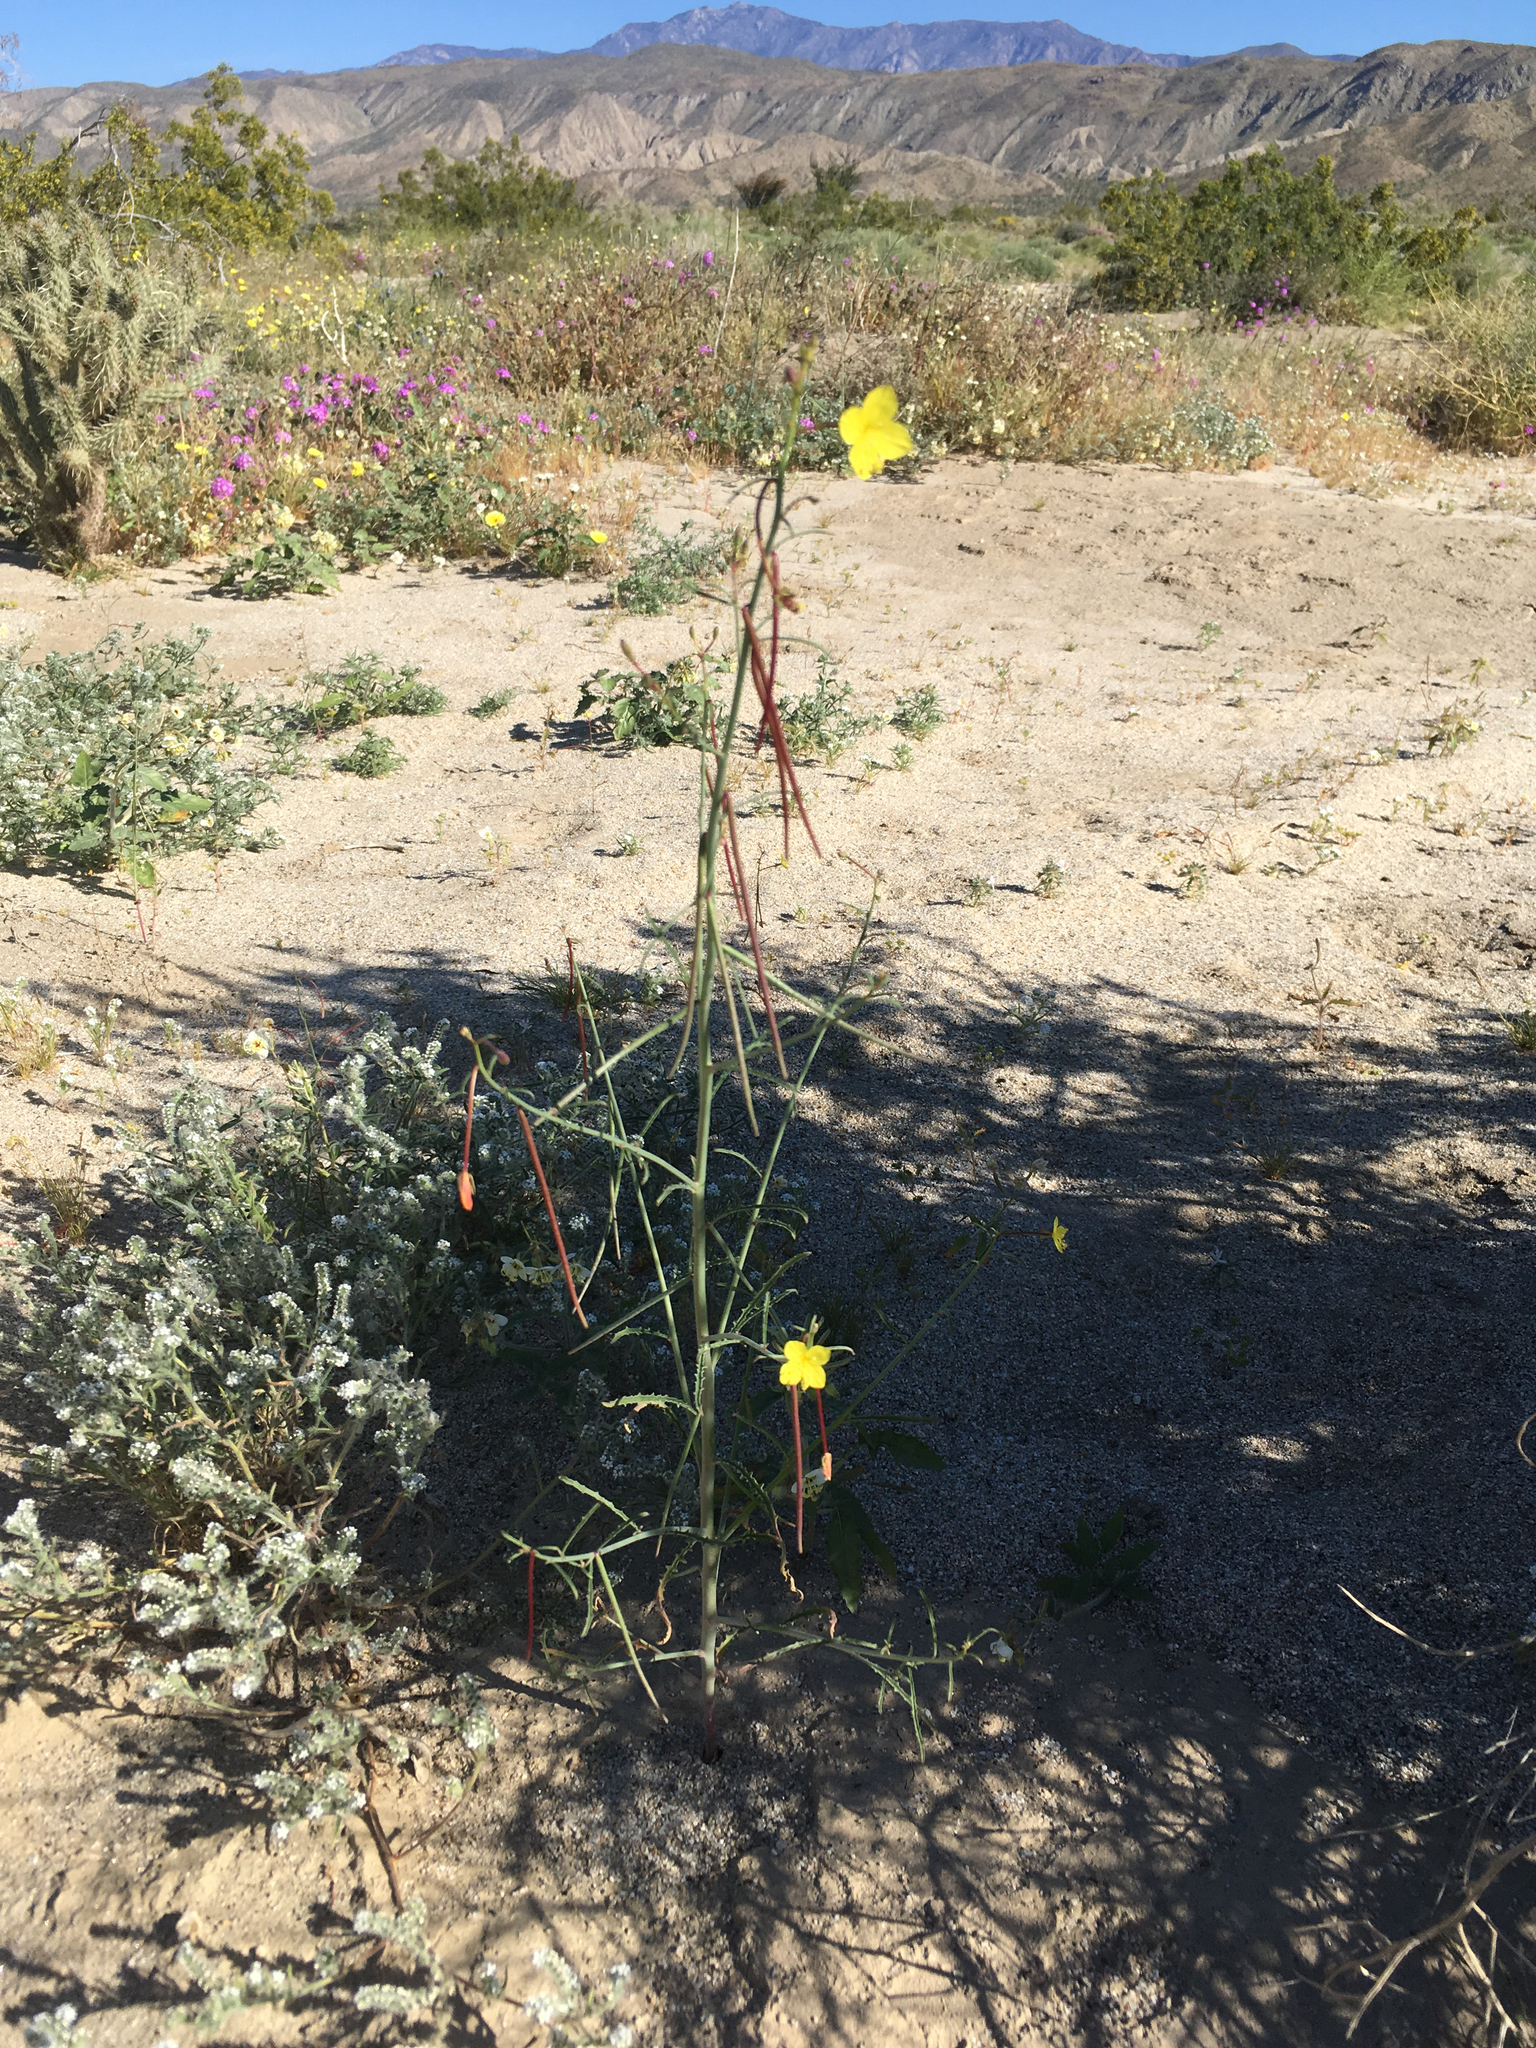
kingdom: Plantae
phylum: Tracheophyta
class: Magnoliopsida
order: Myrtales
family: Onagraceae
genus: Eulobus
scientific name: Eulobus californicus
